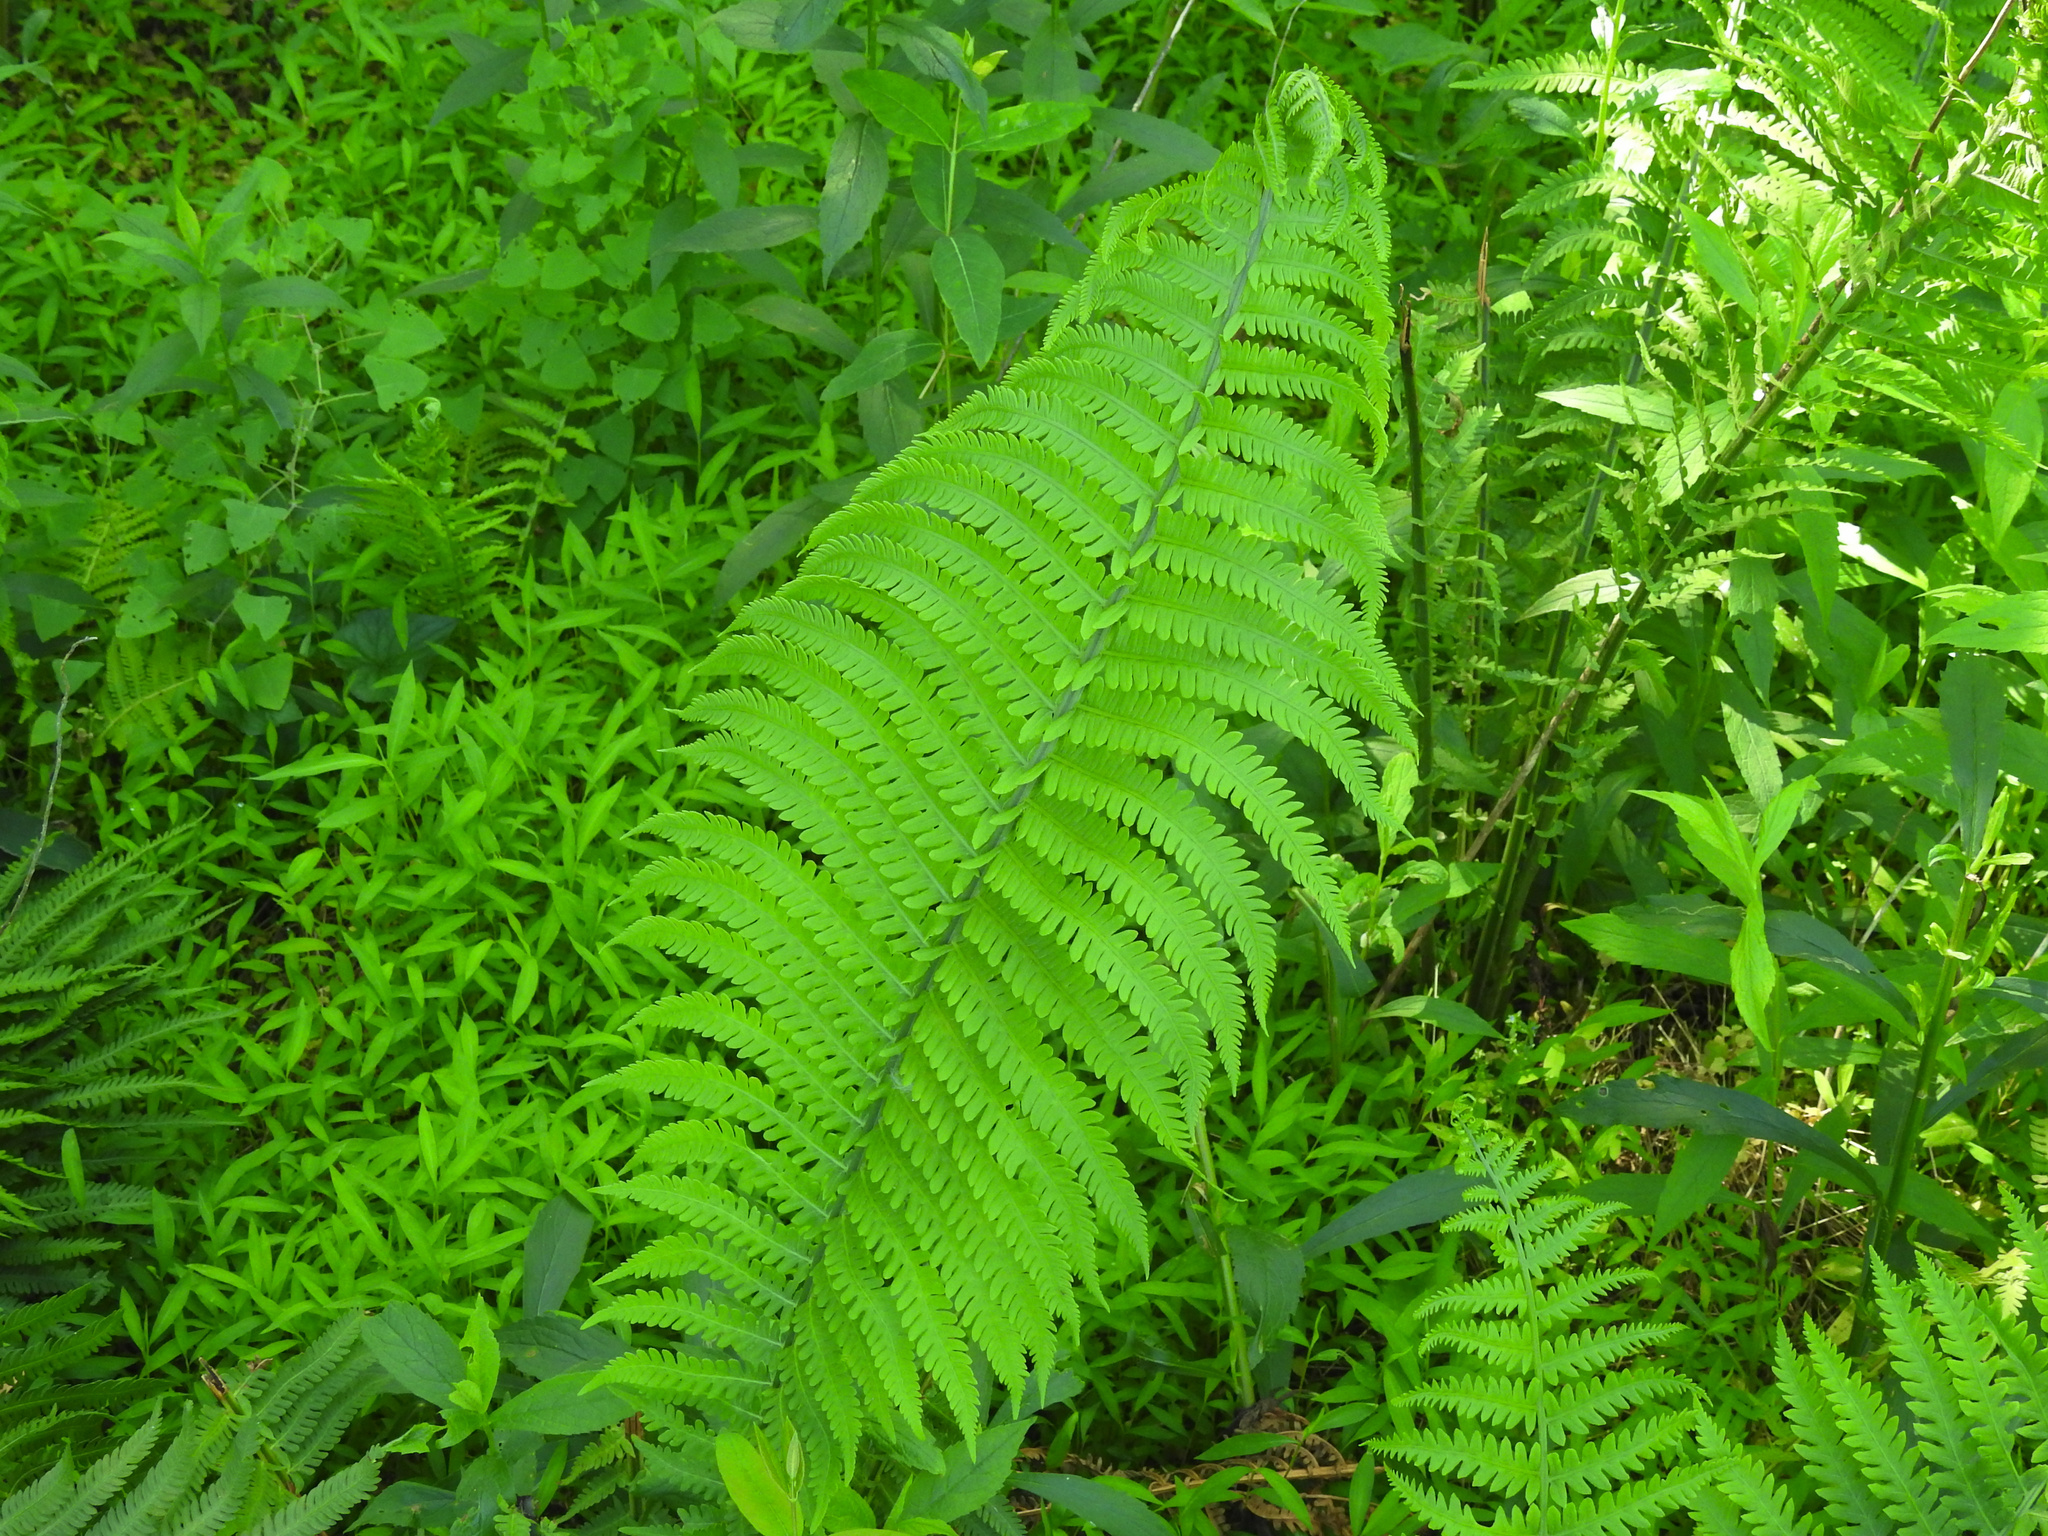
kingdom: Plantae
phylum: Tracheophyta
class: Polypodiopsida
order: Polypodiales
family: Onocleaceae
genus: Matteuccia
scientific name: Matteuccia struthiopteris
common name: Ostrich fern
